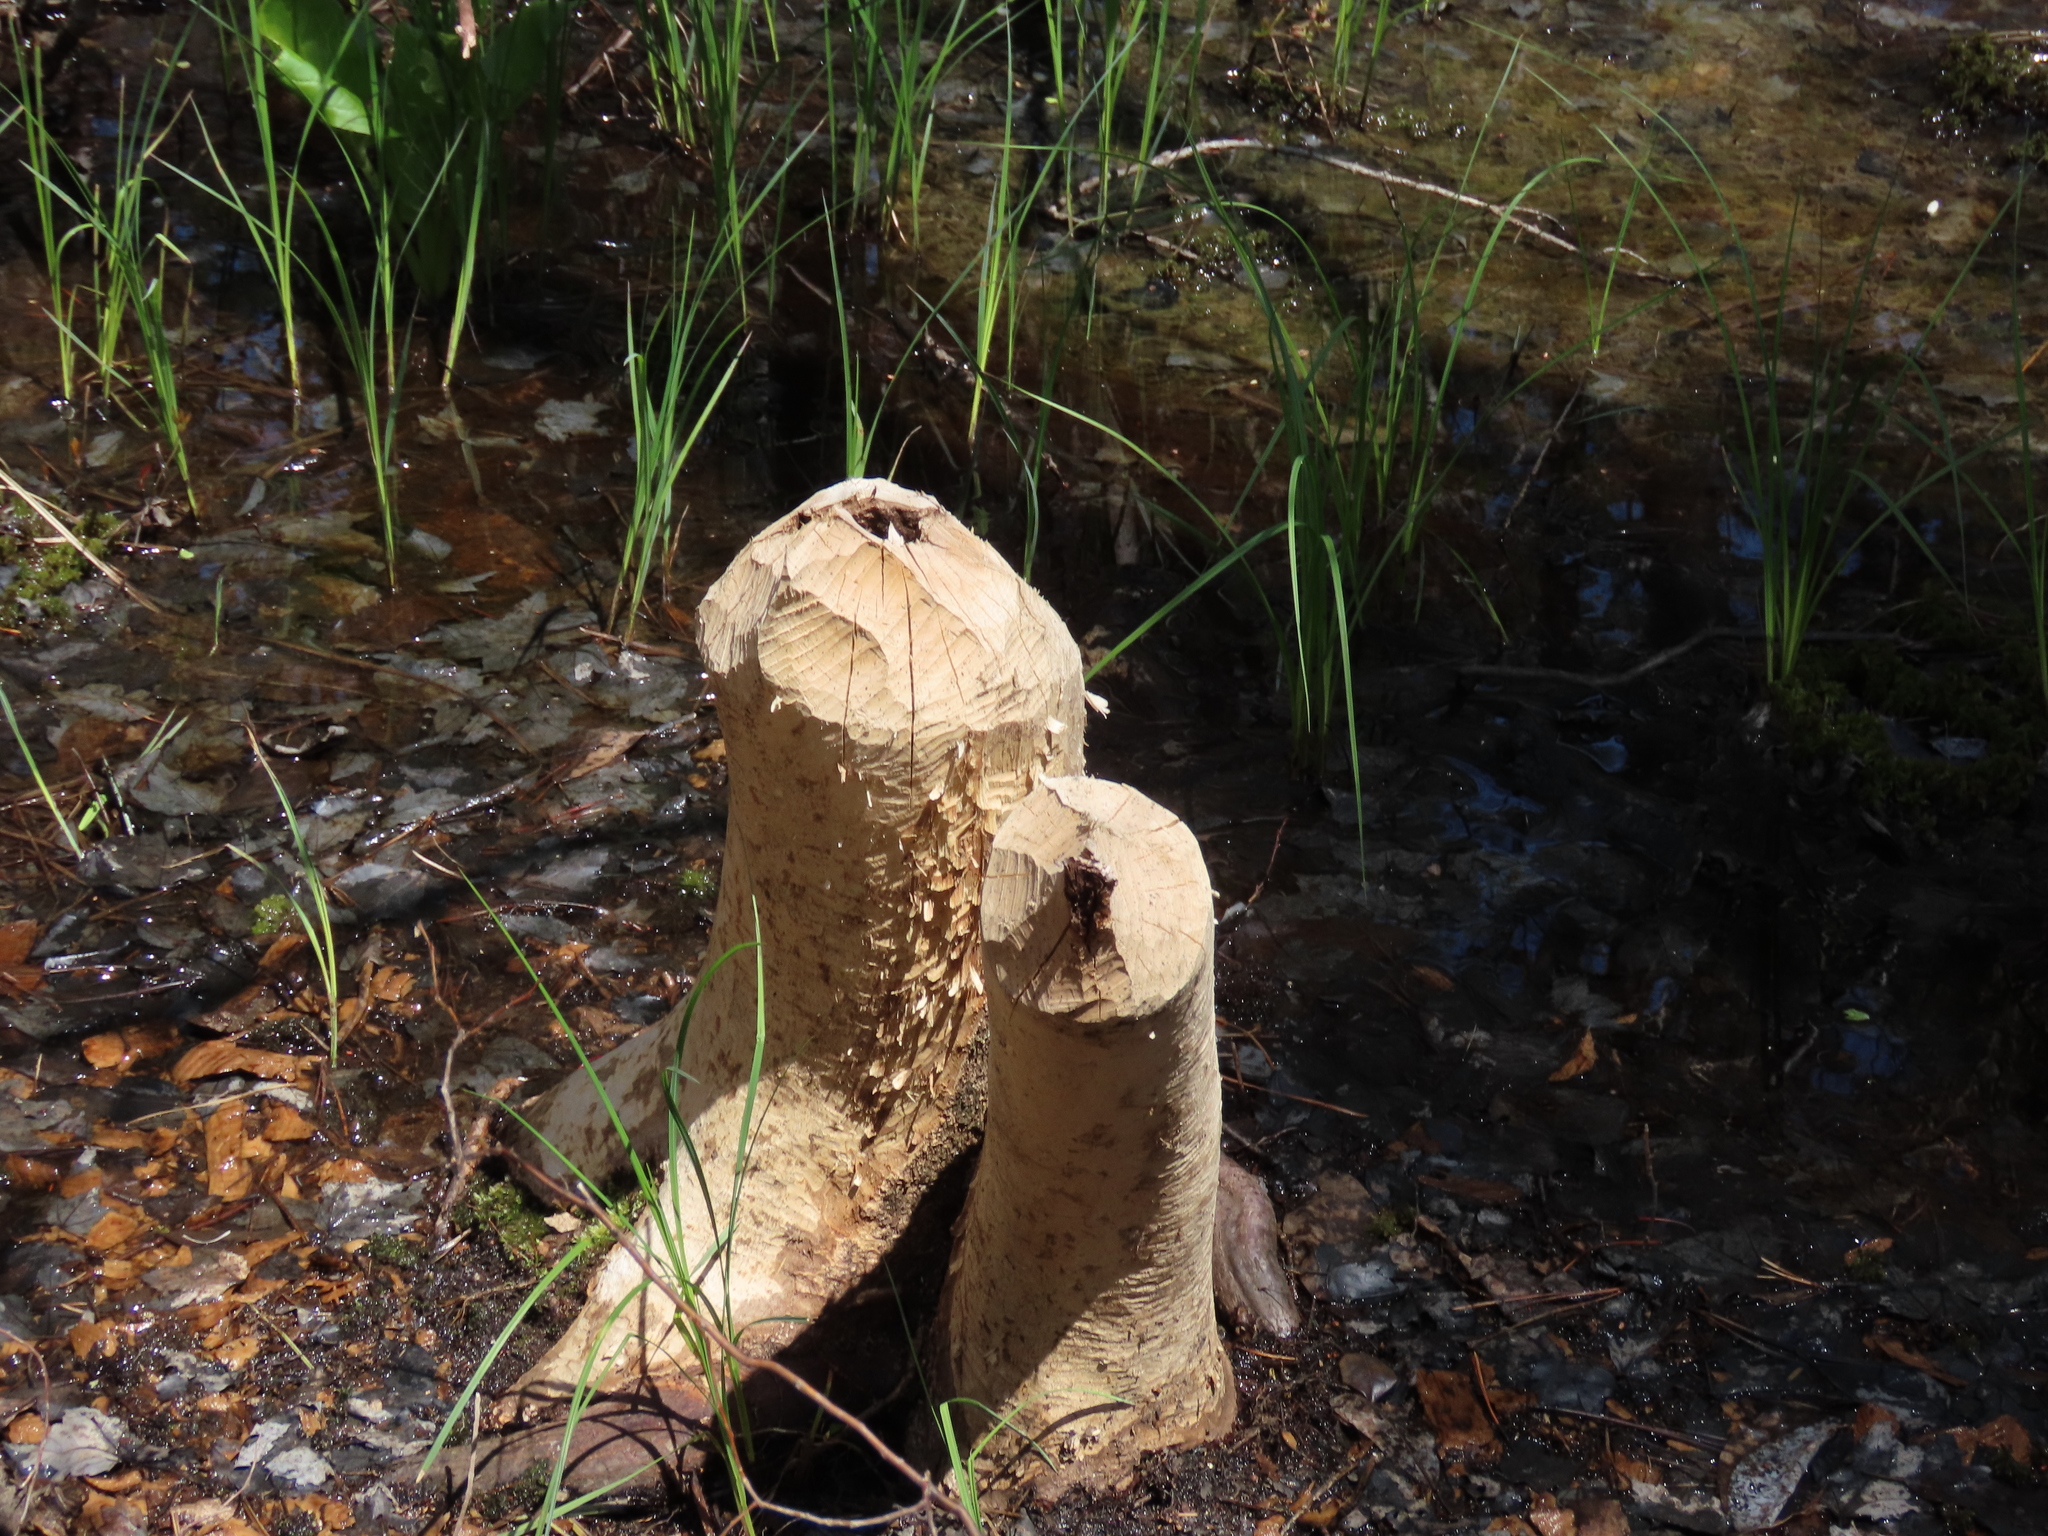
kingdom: Animalia
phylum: Chordata
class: Mammalia
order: Rodentia
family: Castoridae
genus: Castor
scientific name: Castor canadensis
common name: American beaver
